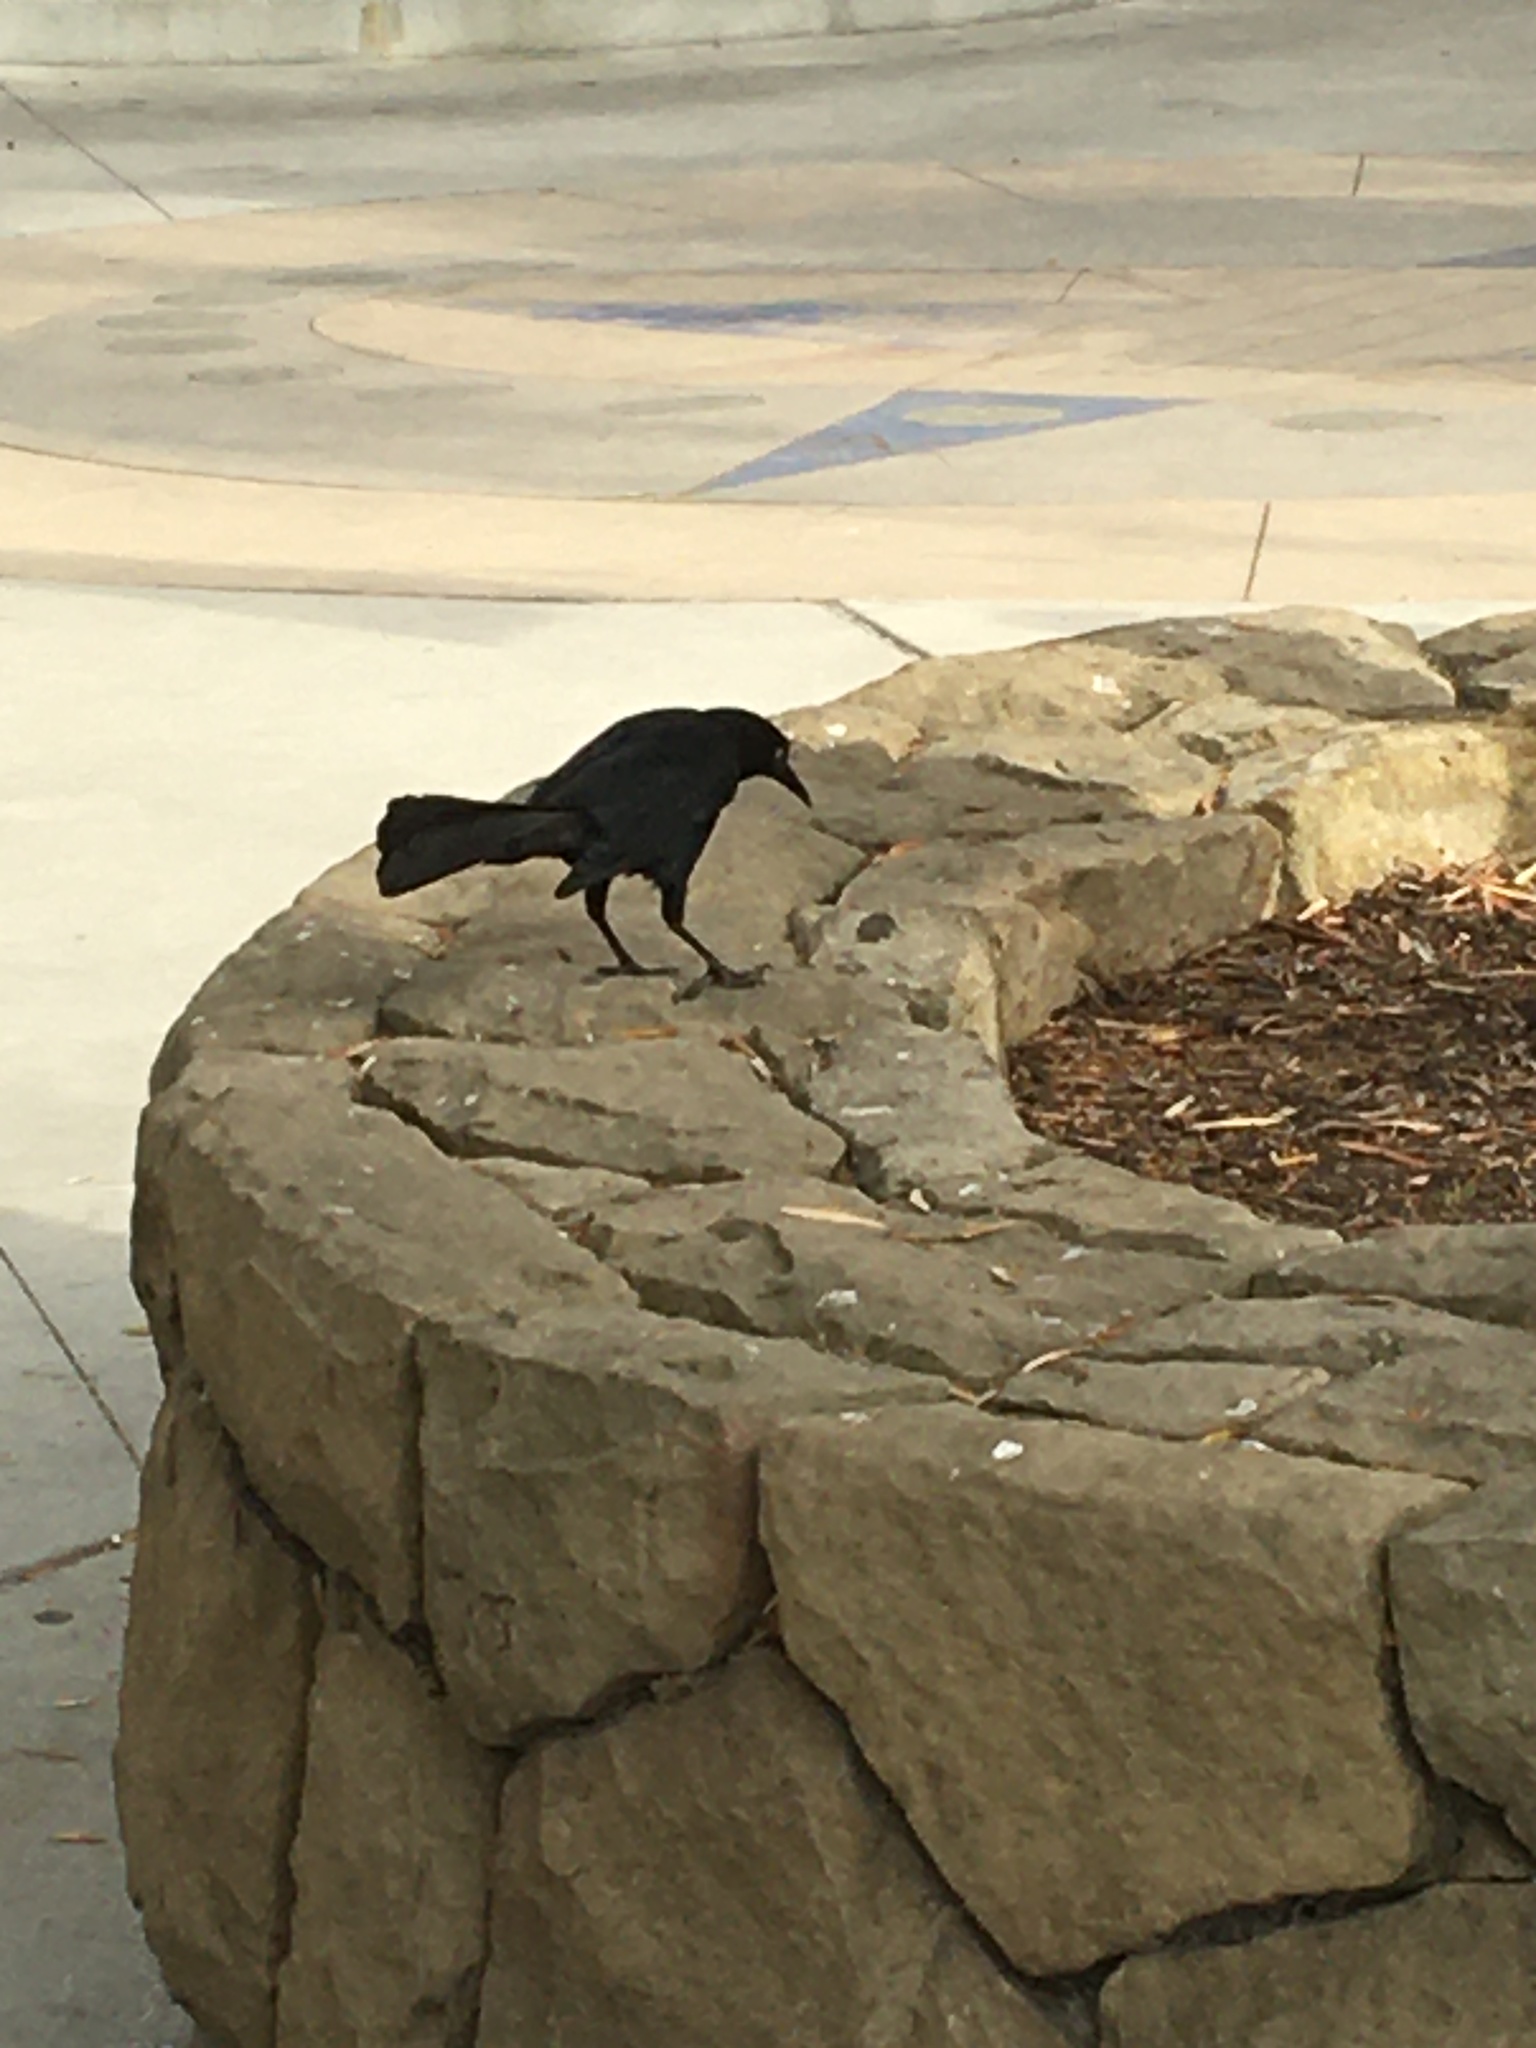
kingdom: Animalia
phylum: Chordata
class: Aves
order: Passeriformes
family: Icteridae
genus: Quiscalus
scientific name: Quiscalus mexicanus
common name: Great-tailed grackle
